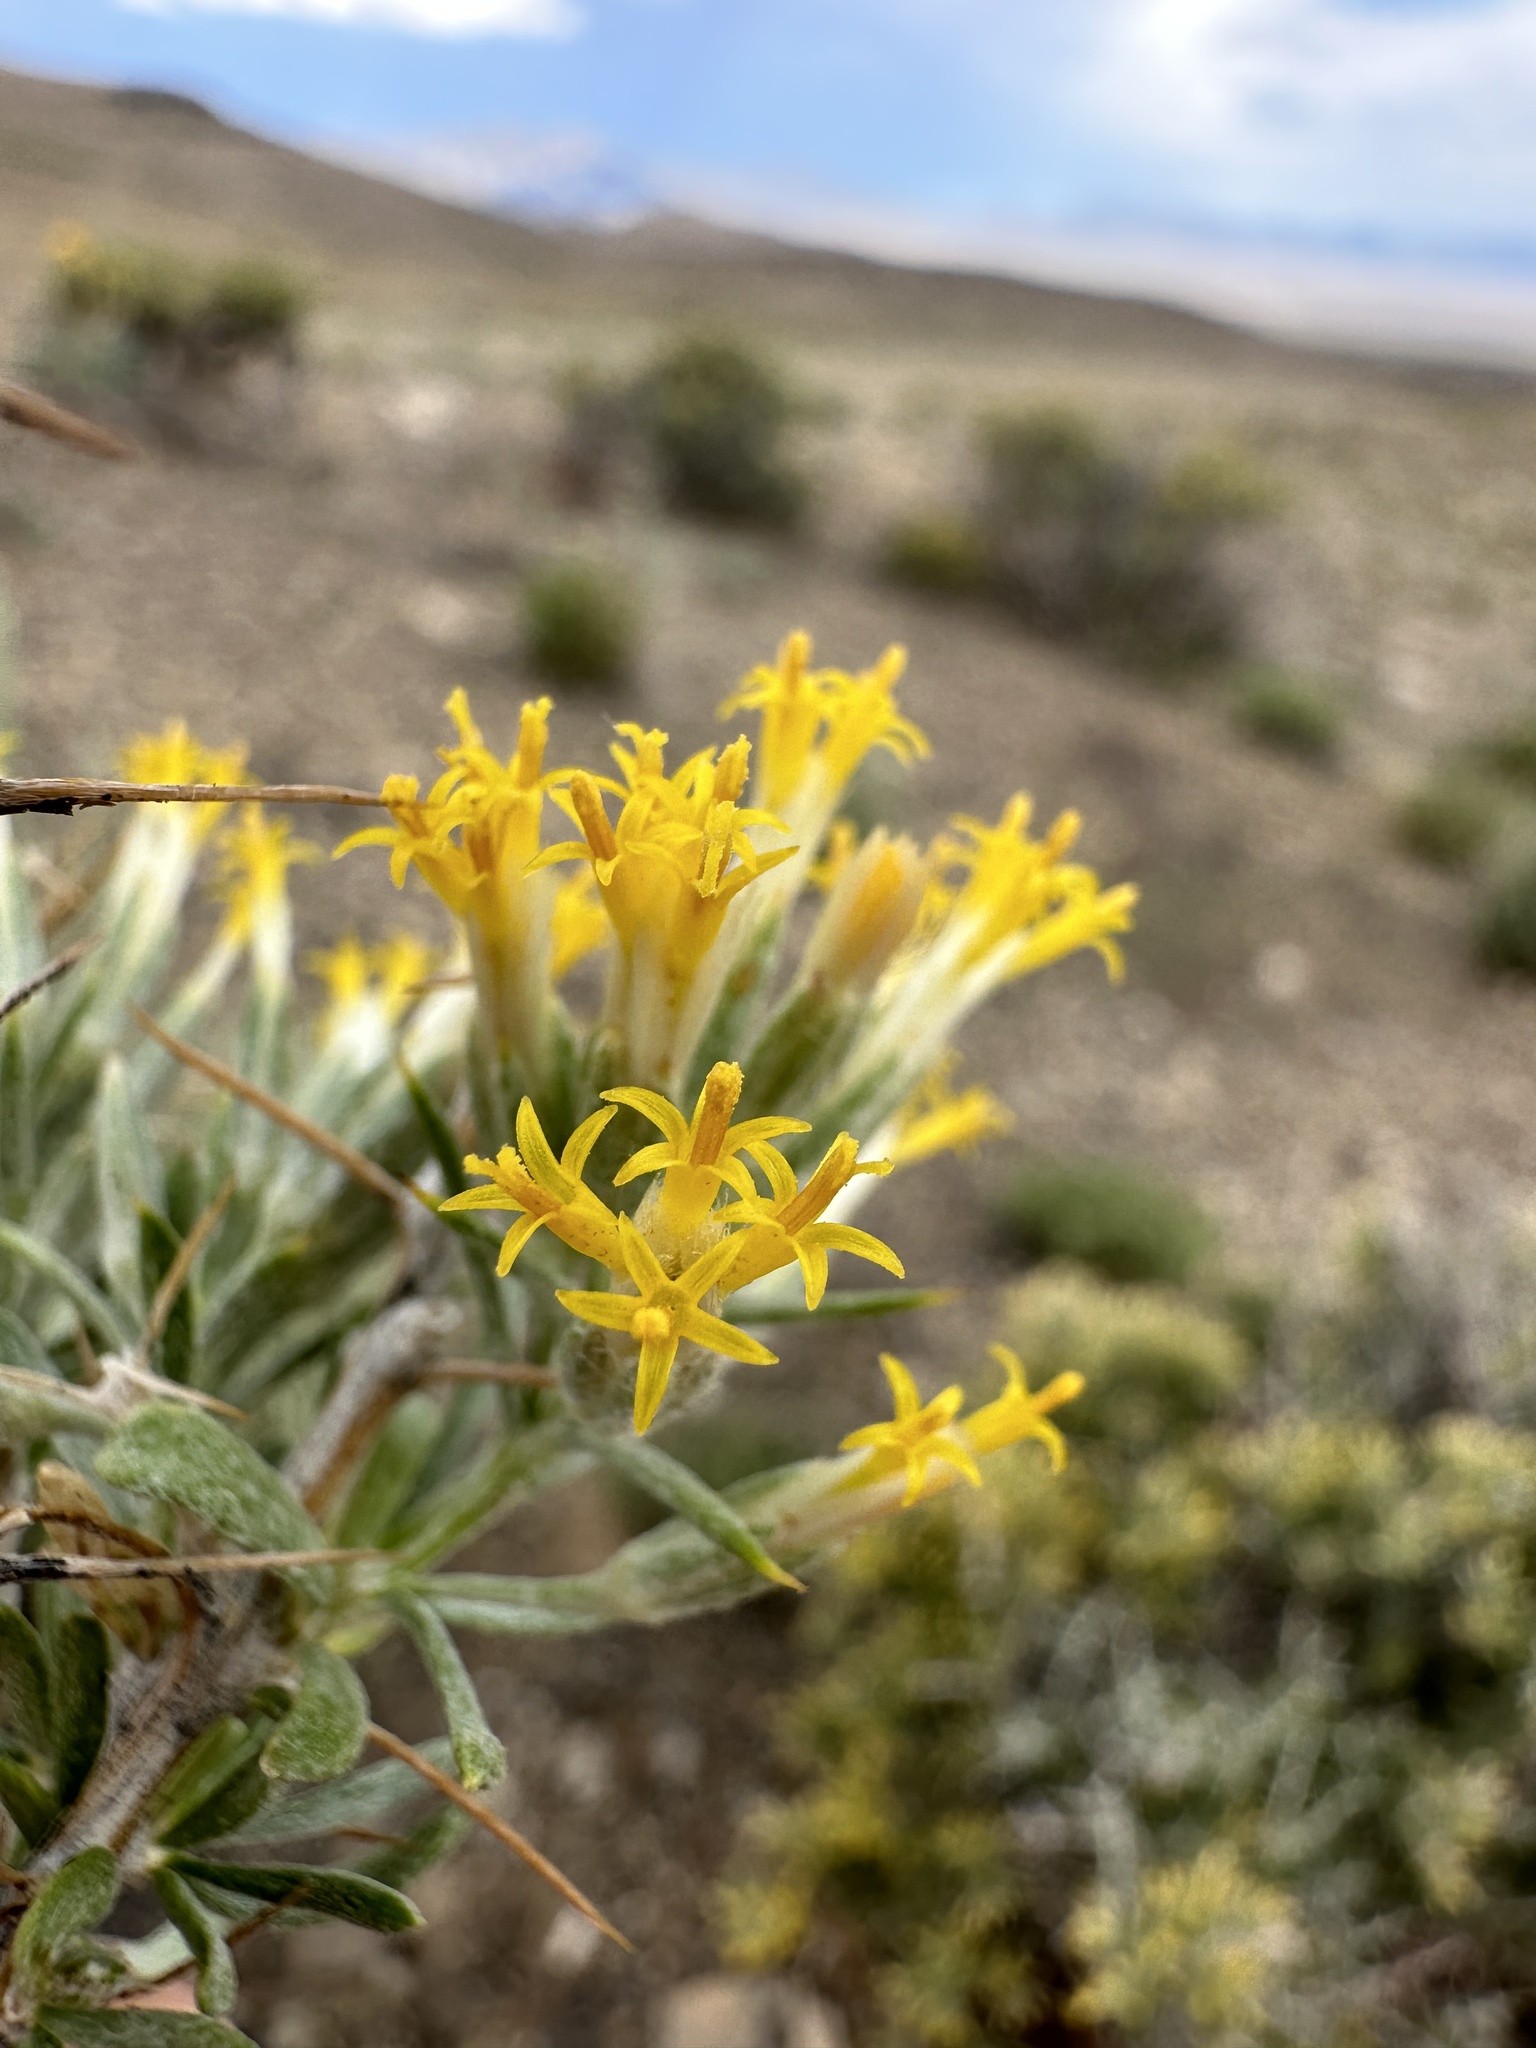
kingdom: Plantae
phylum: Tracheophyta
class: Magnoliopsida
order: Asterales
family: Asteraceae
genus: Tetradymia
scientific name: Tetradymia nuttallii
